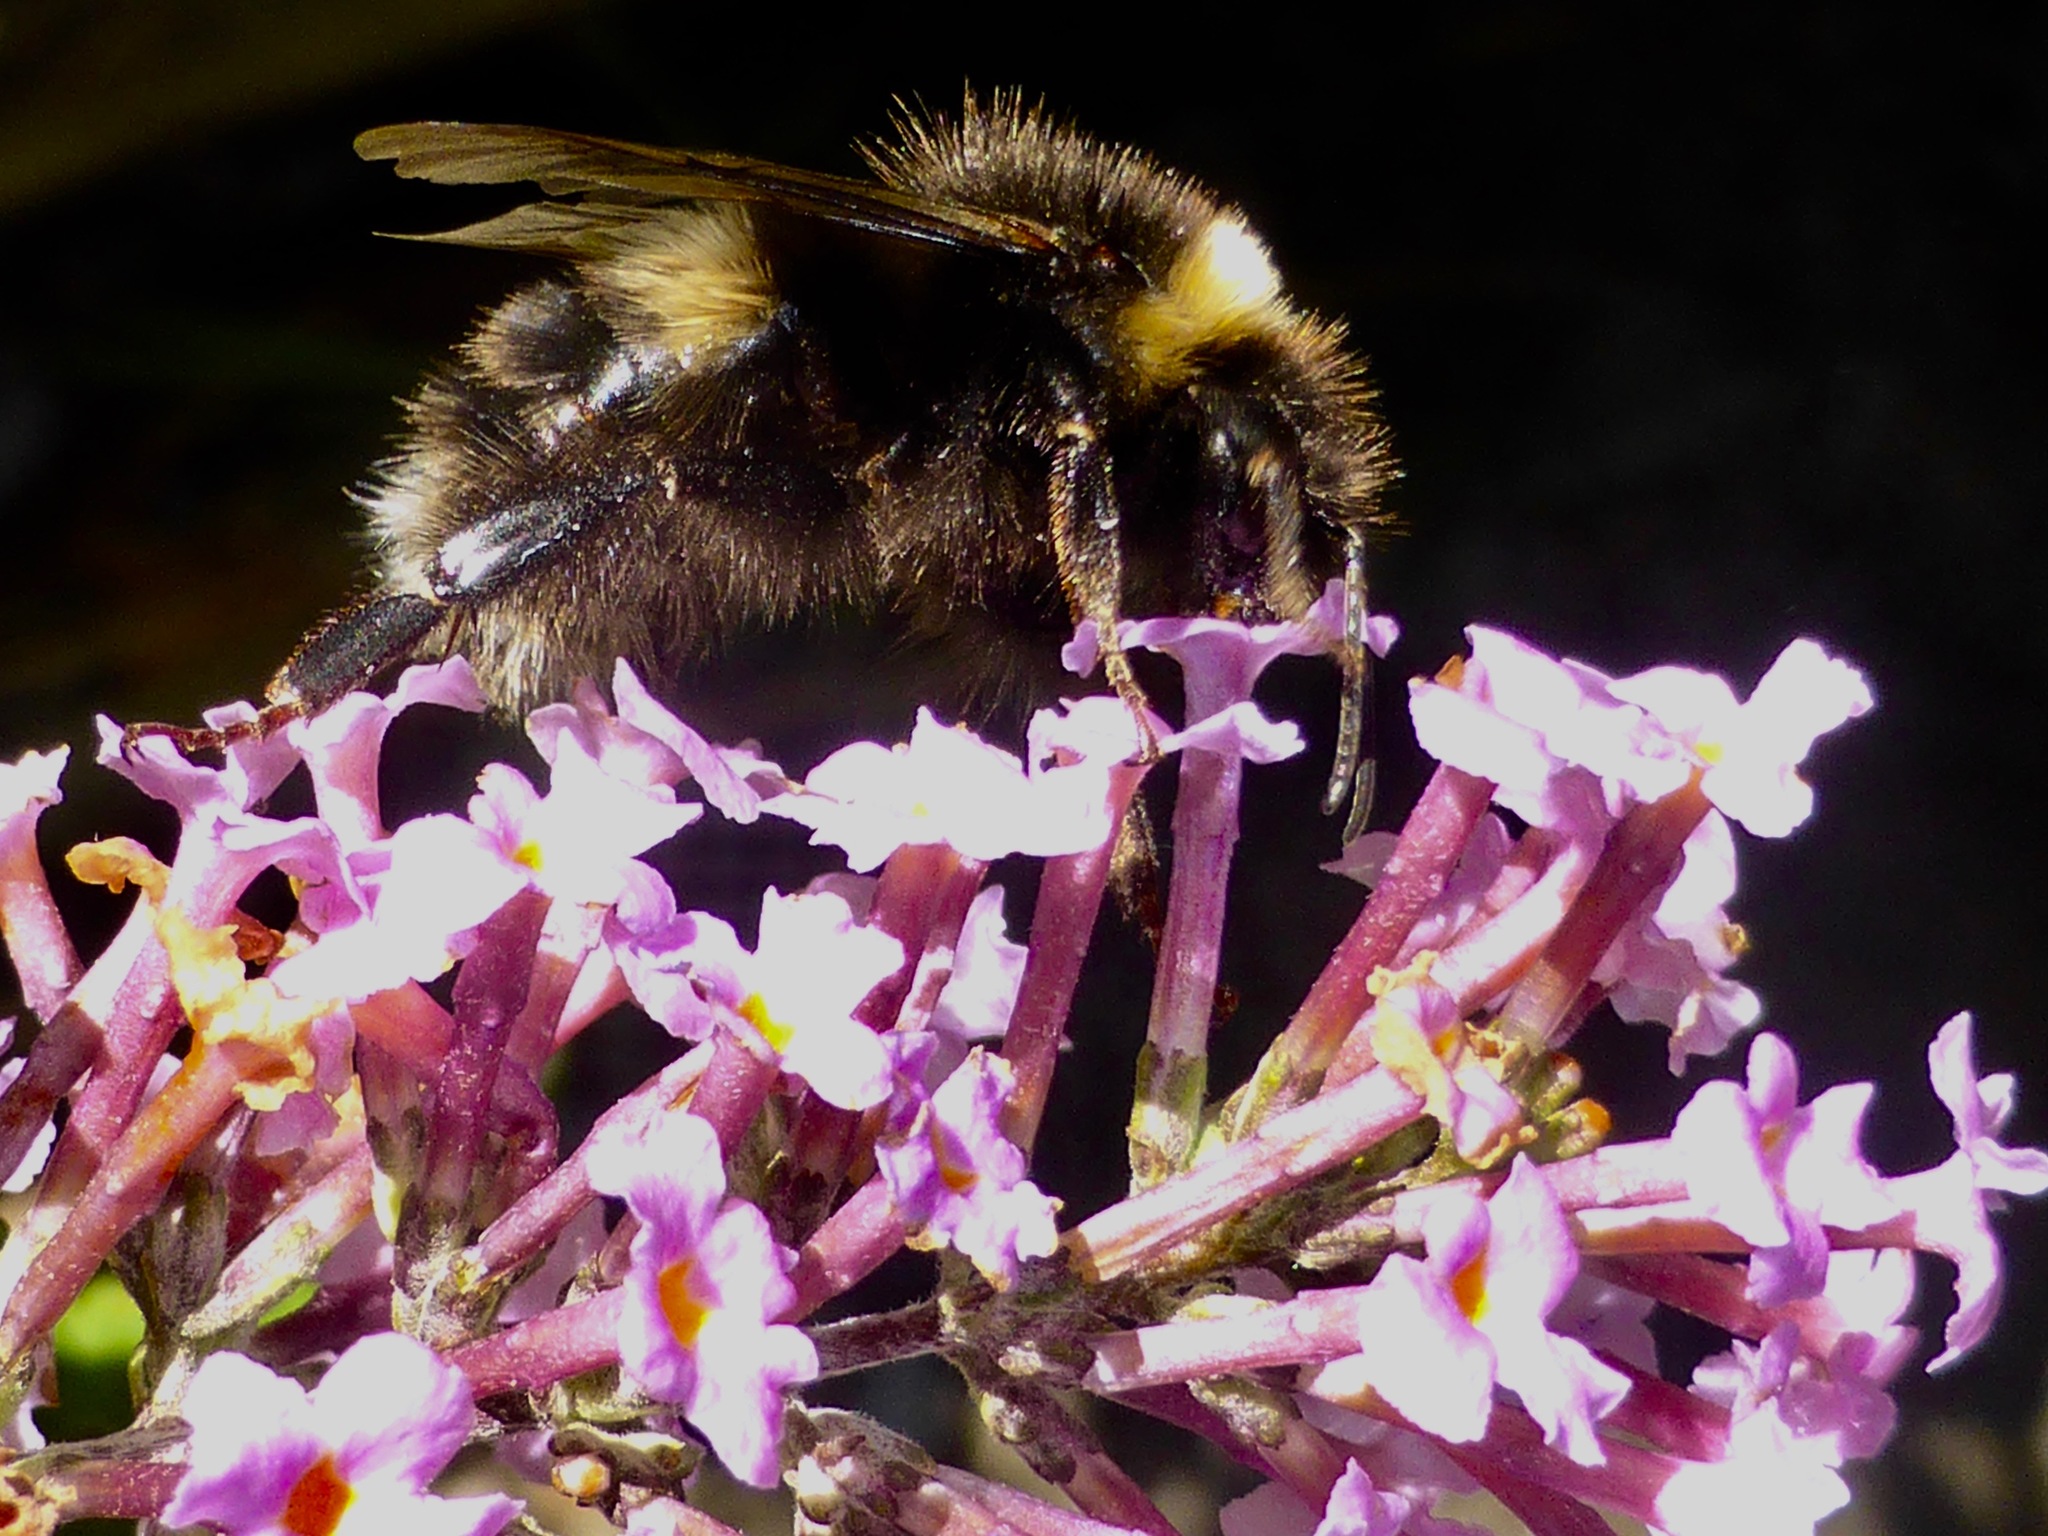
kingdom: Animalia
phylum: Arthropoda
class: Insecta
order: Hymenoptera
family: Apidae
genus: Bombus
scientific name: Bombus terrestris
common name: Buff-tailed bumblebee
